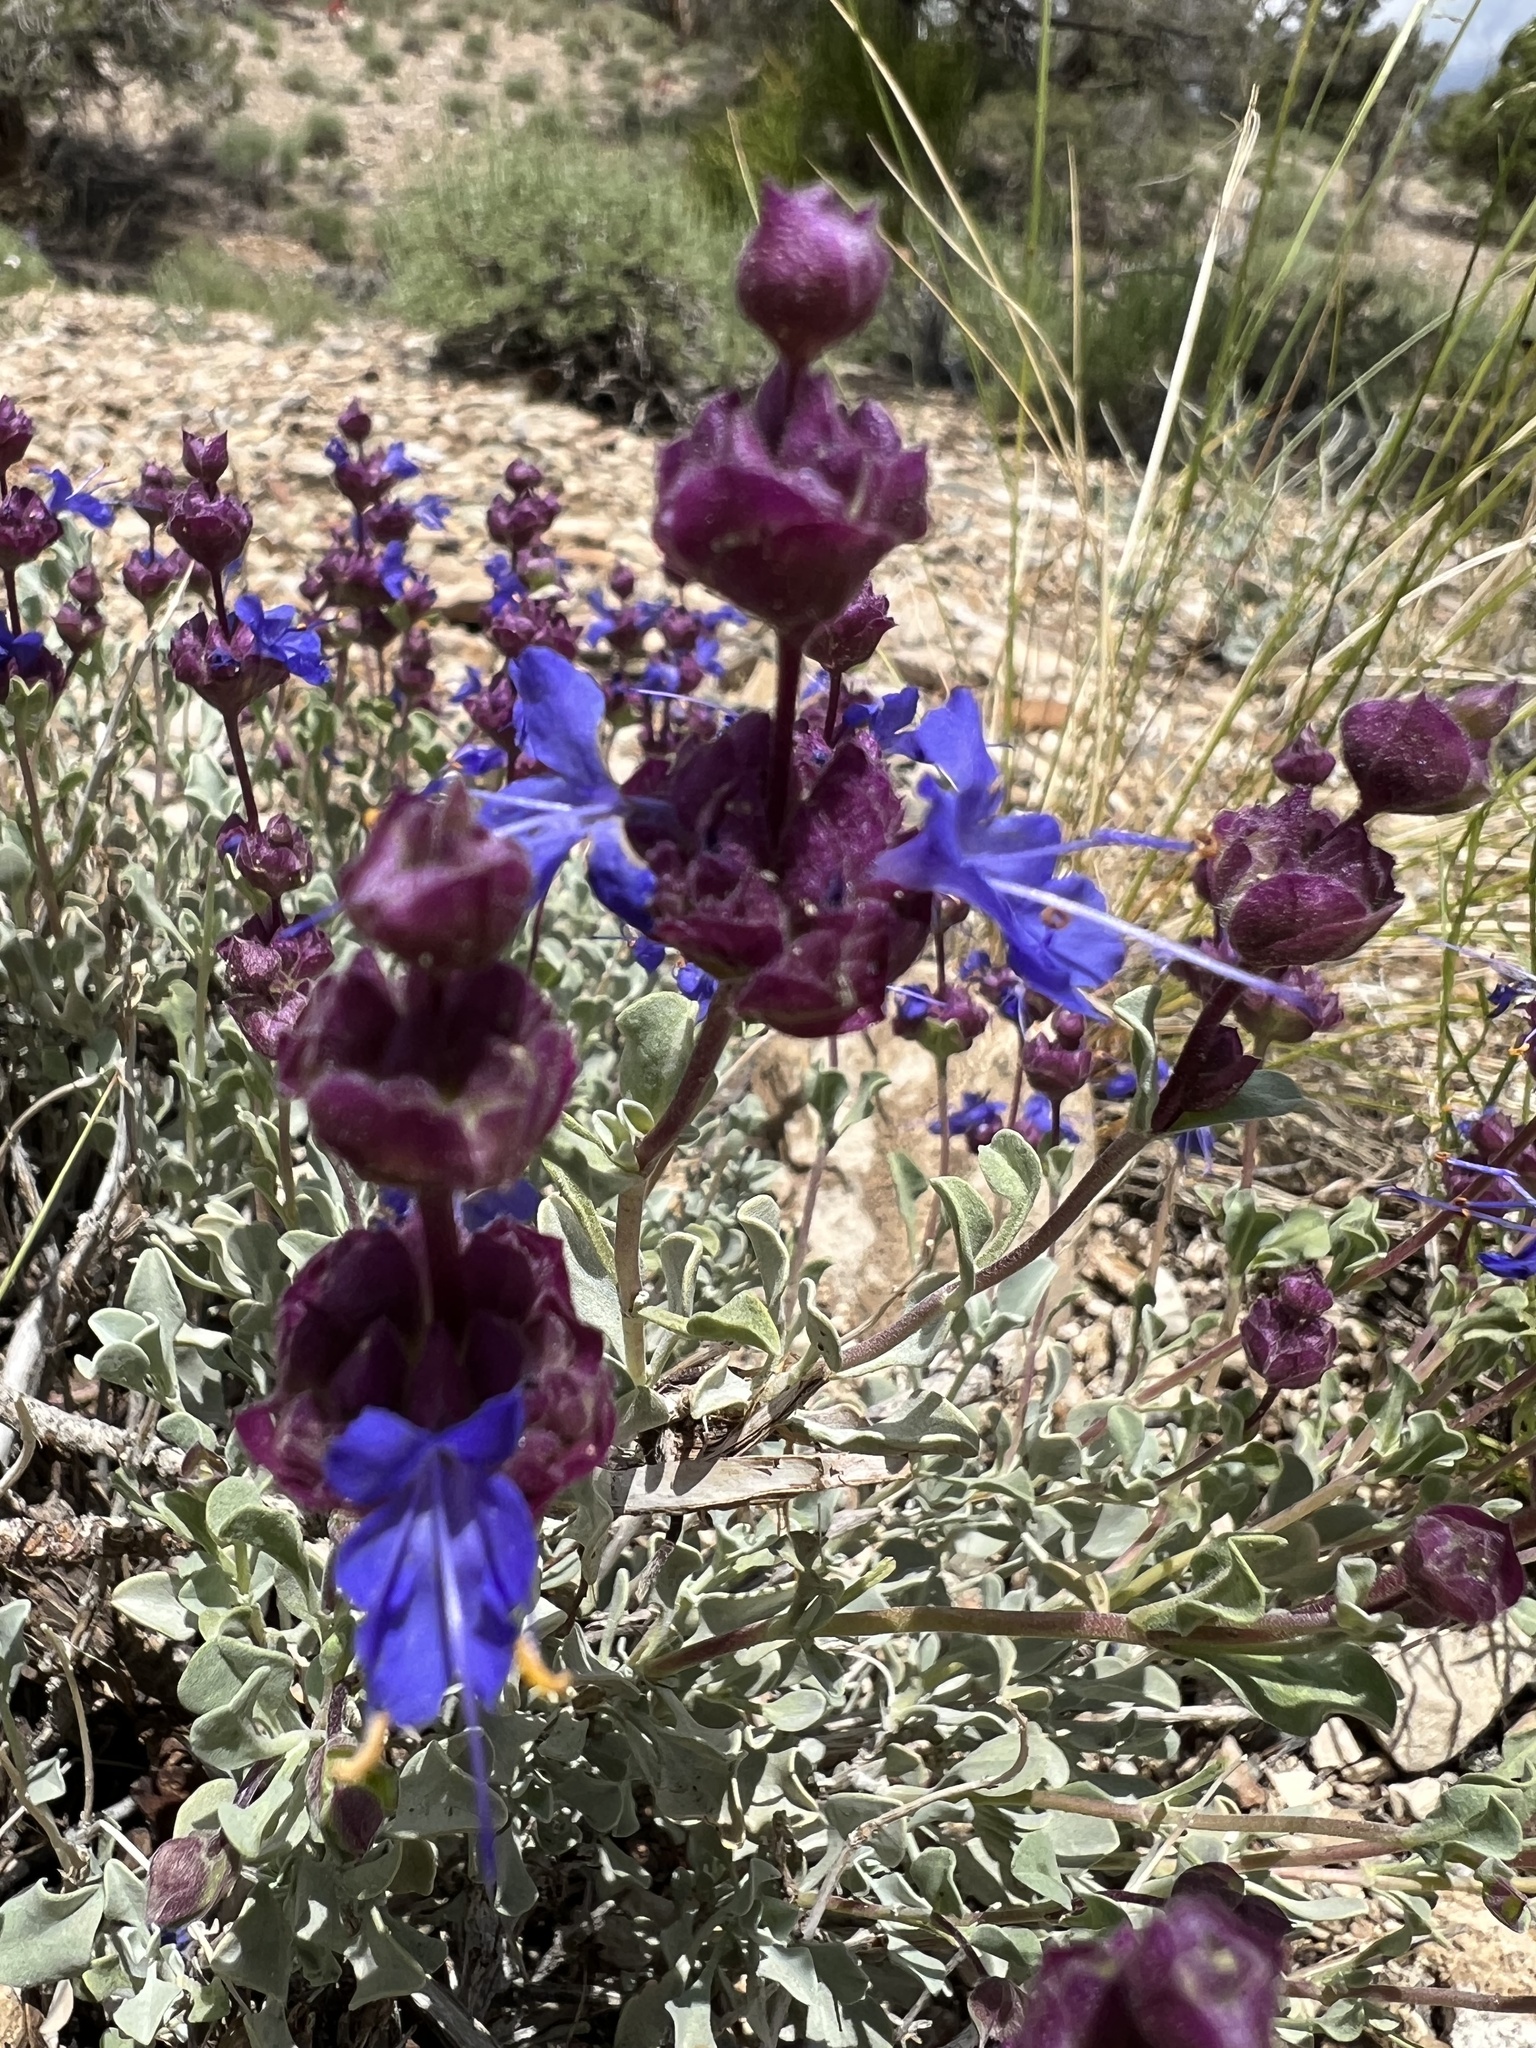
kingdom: Plantae
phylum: Tracheophyta
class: Magnoliopsida
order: Lamiales
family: Lamiaceae
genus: Salvia
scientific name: Salvia dorrii
